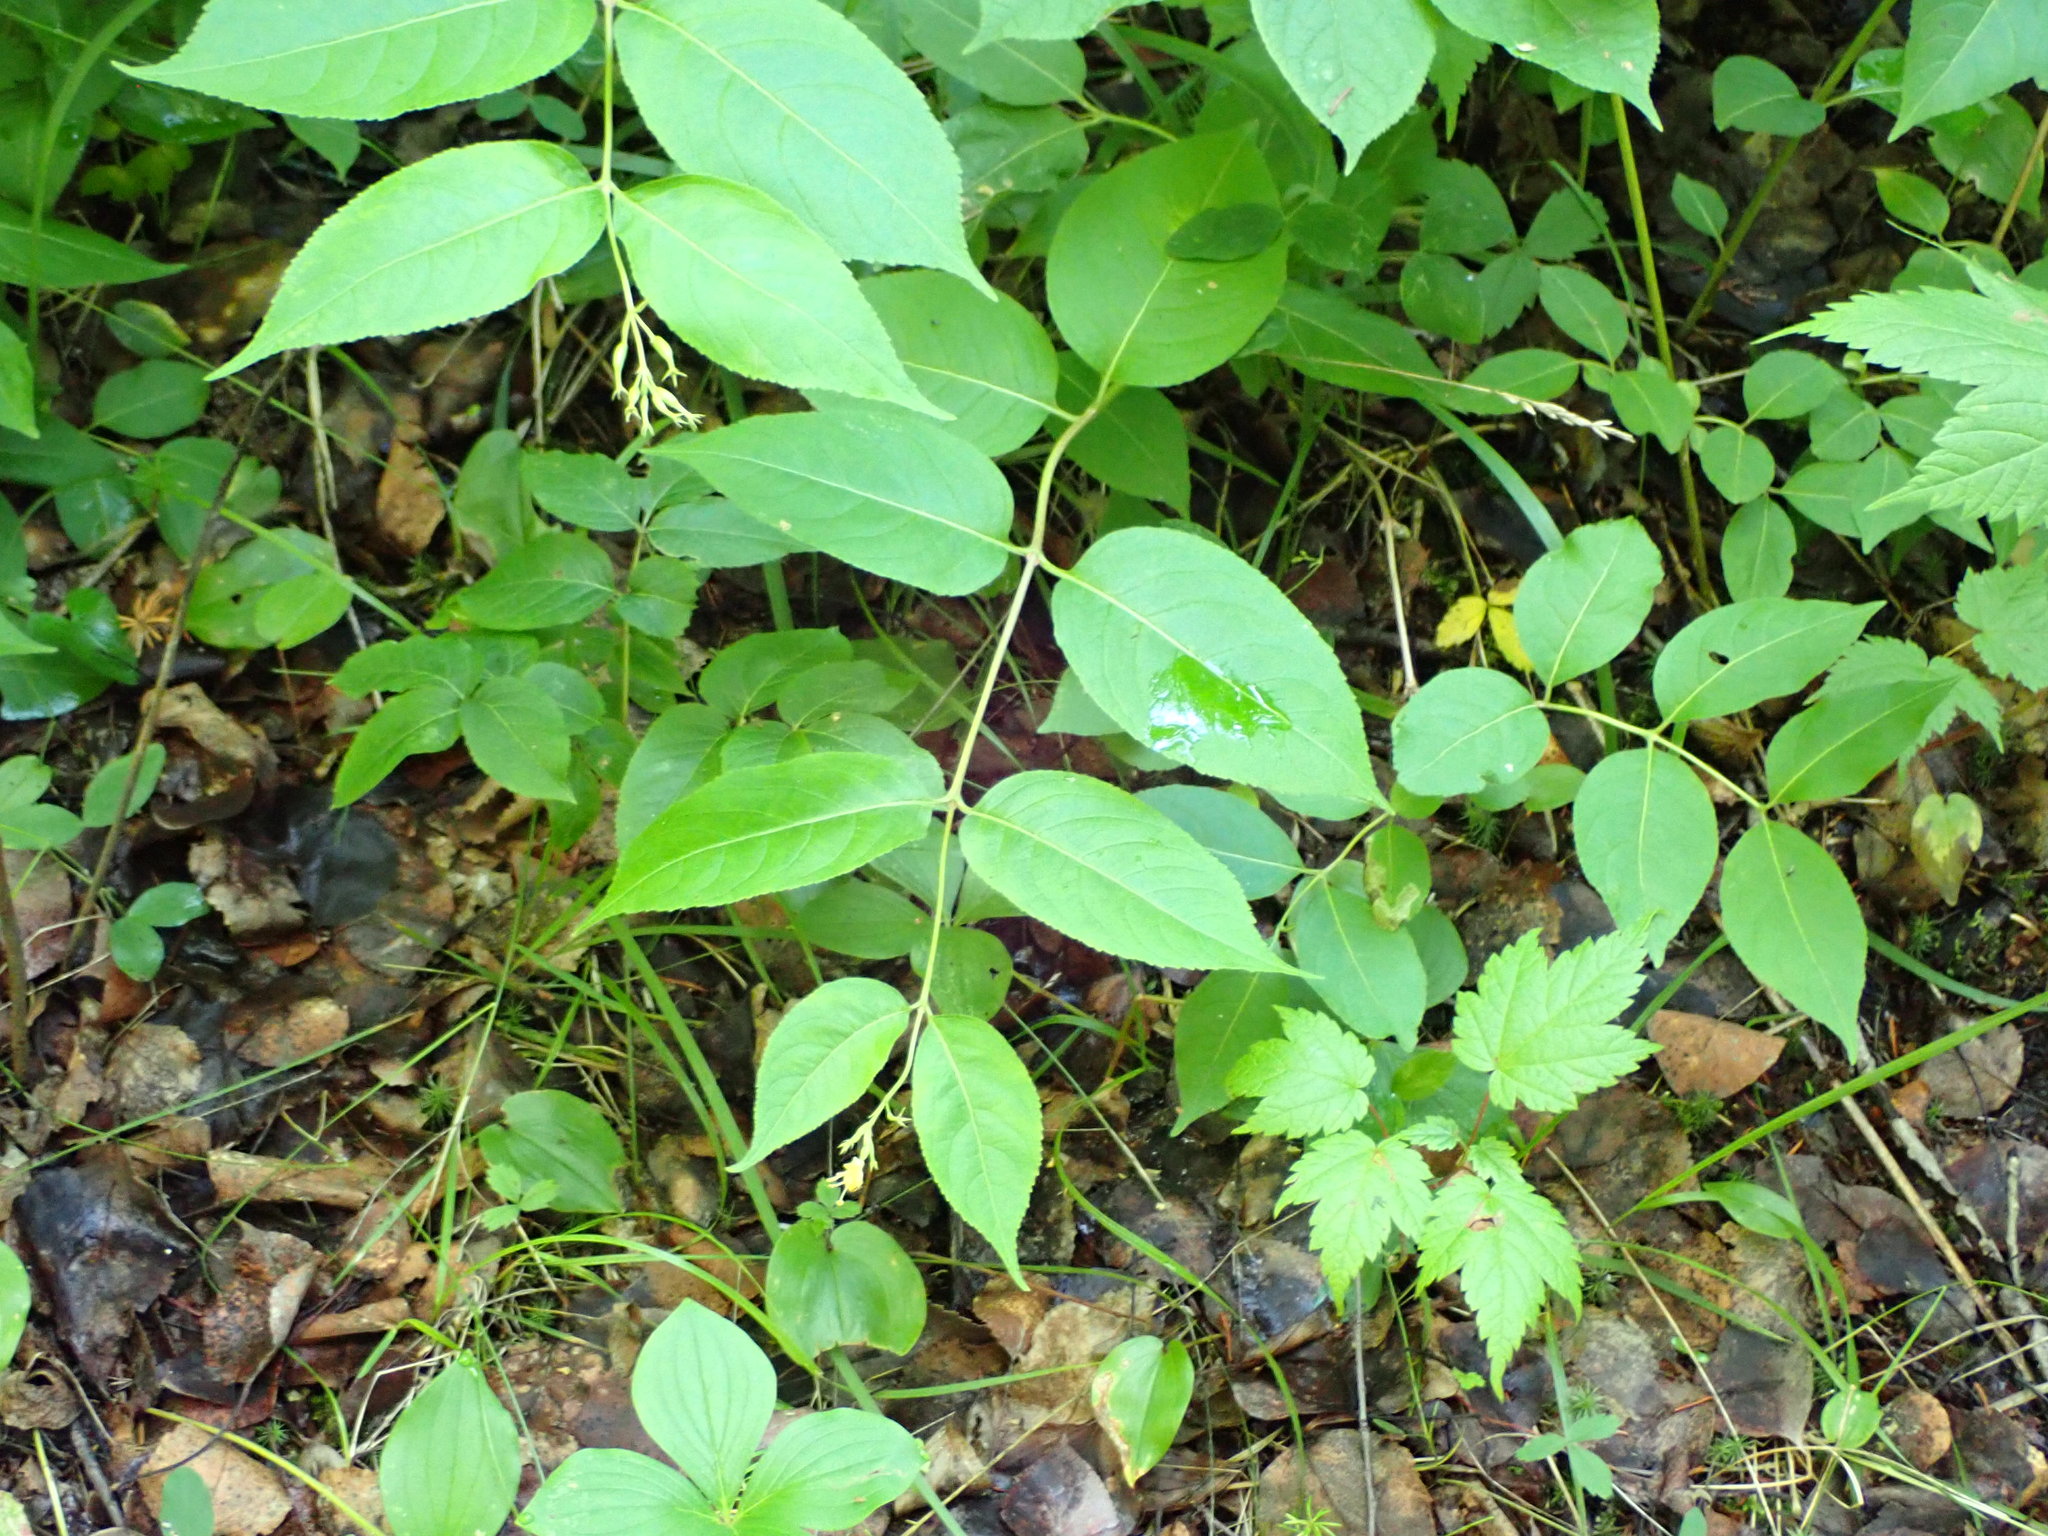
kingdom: Plantae
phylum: Tracheophyta
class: Magnoliopsida
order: Dipsacales
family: Caprifoliaceae
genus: Diervilla
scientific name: Diervilla lonicera
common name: Bush-honeysuckle
